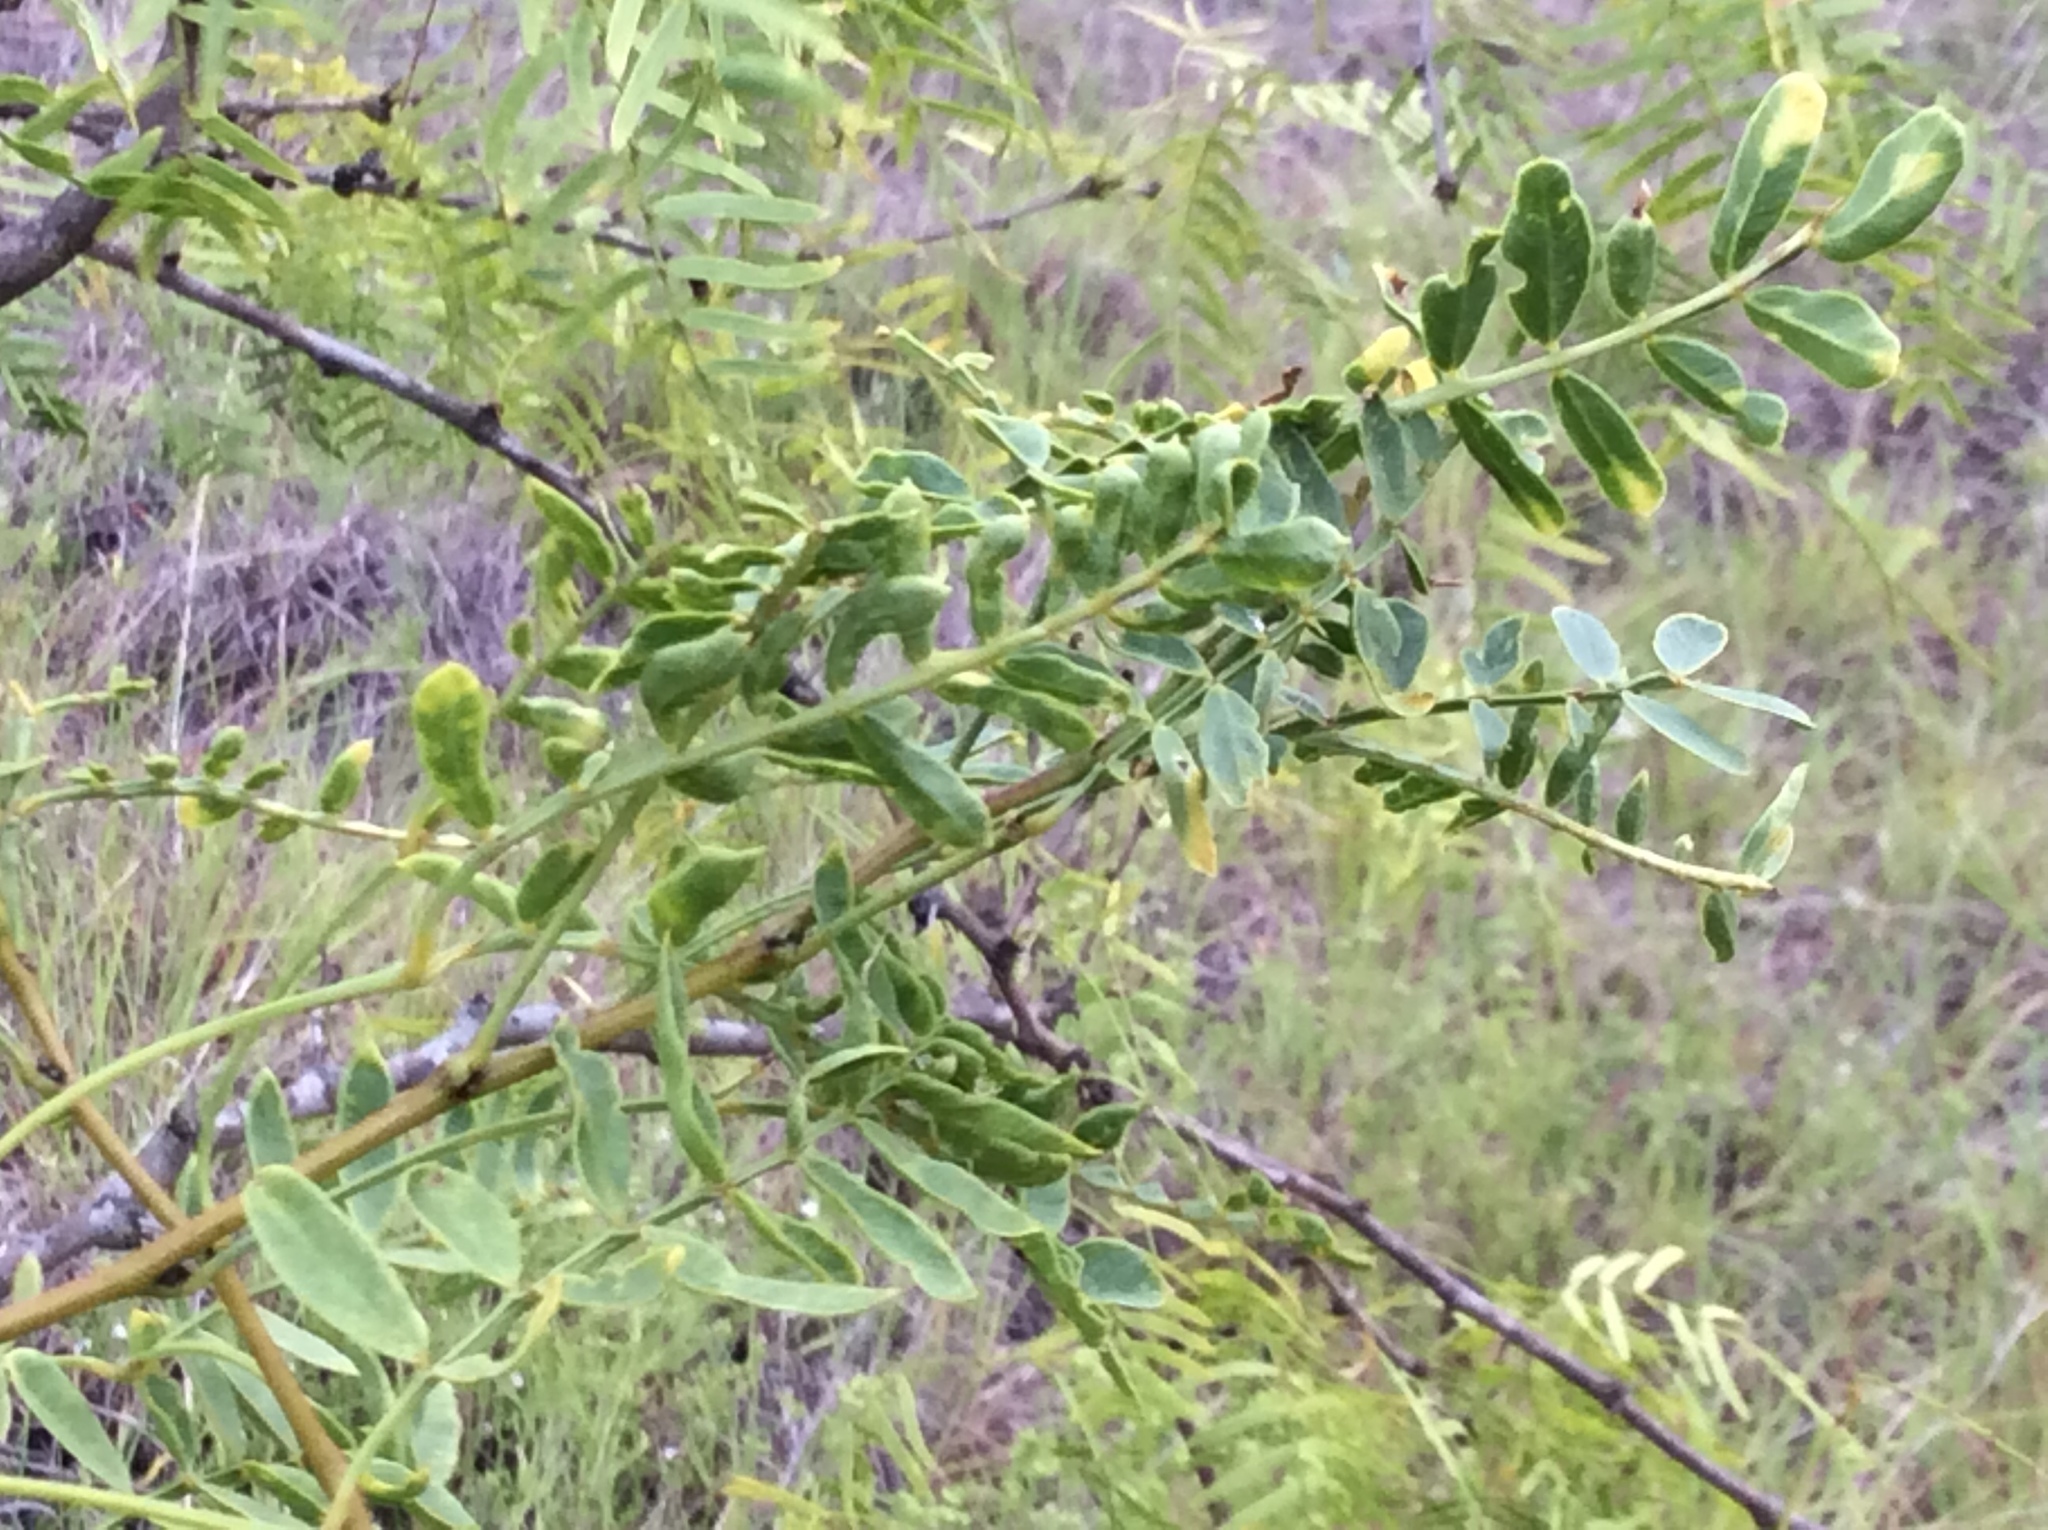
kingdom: Plantae
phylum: Tracheophyta
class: Magnoliopsida
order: Fabales
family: Fabaceae
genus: Prosopis
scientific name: Prosopis glandulosa
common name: Honey mesquite
